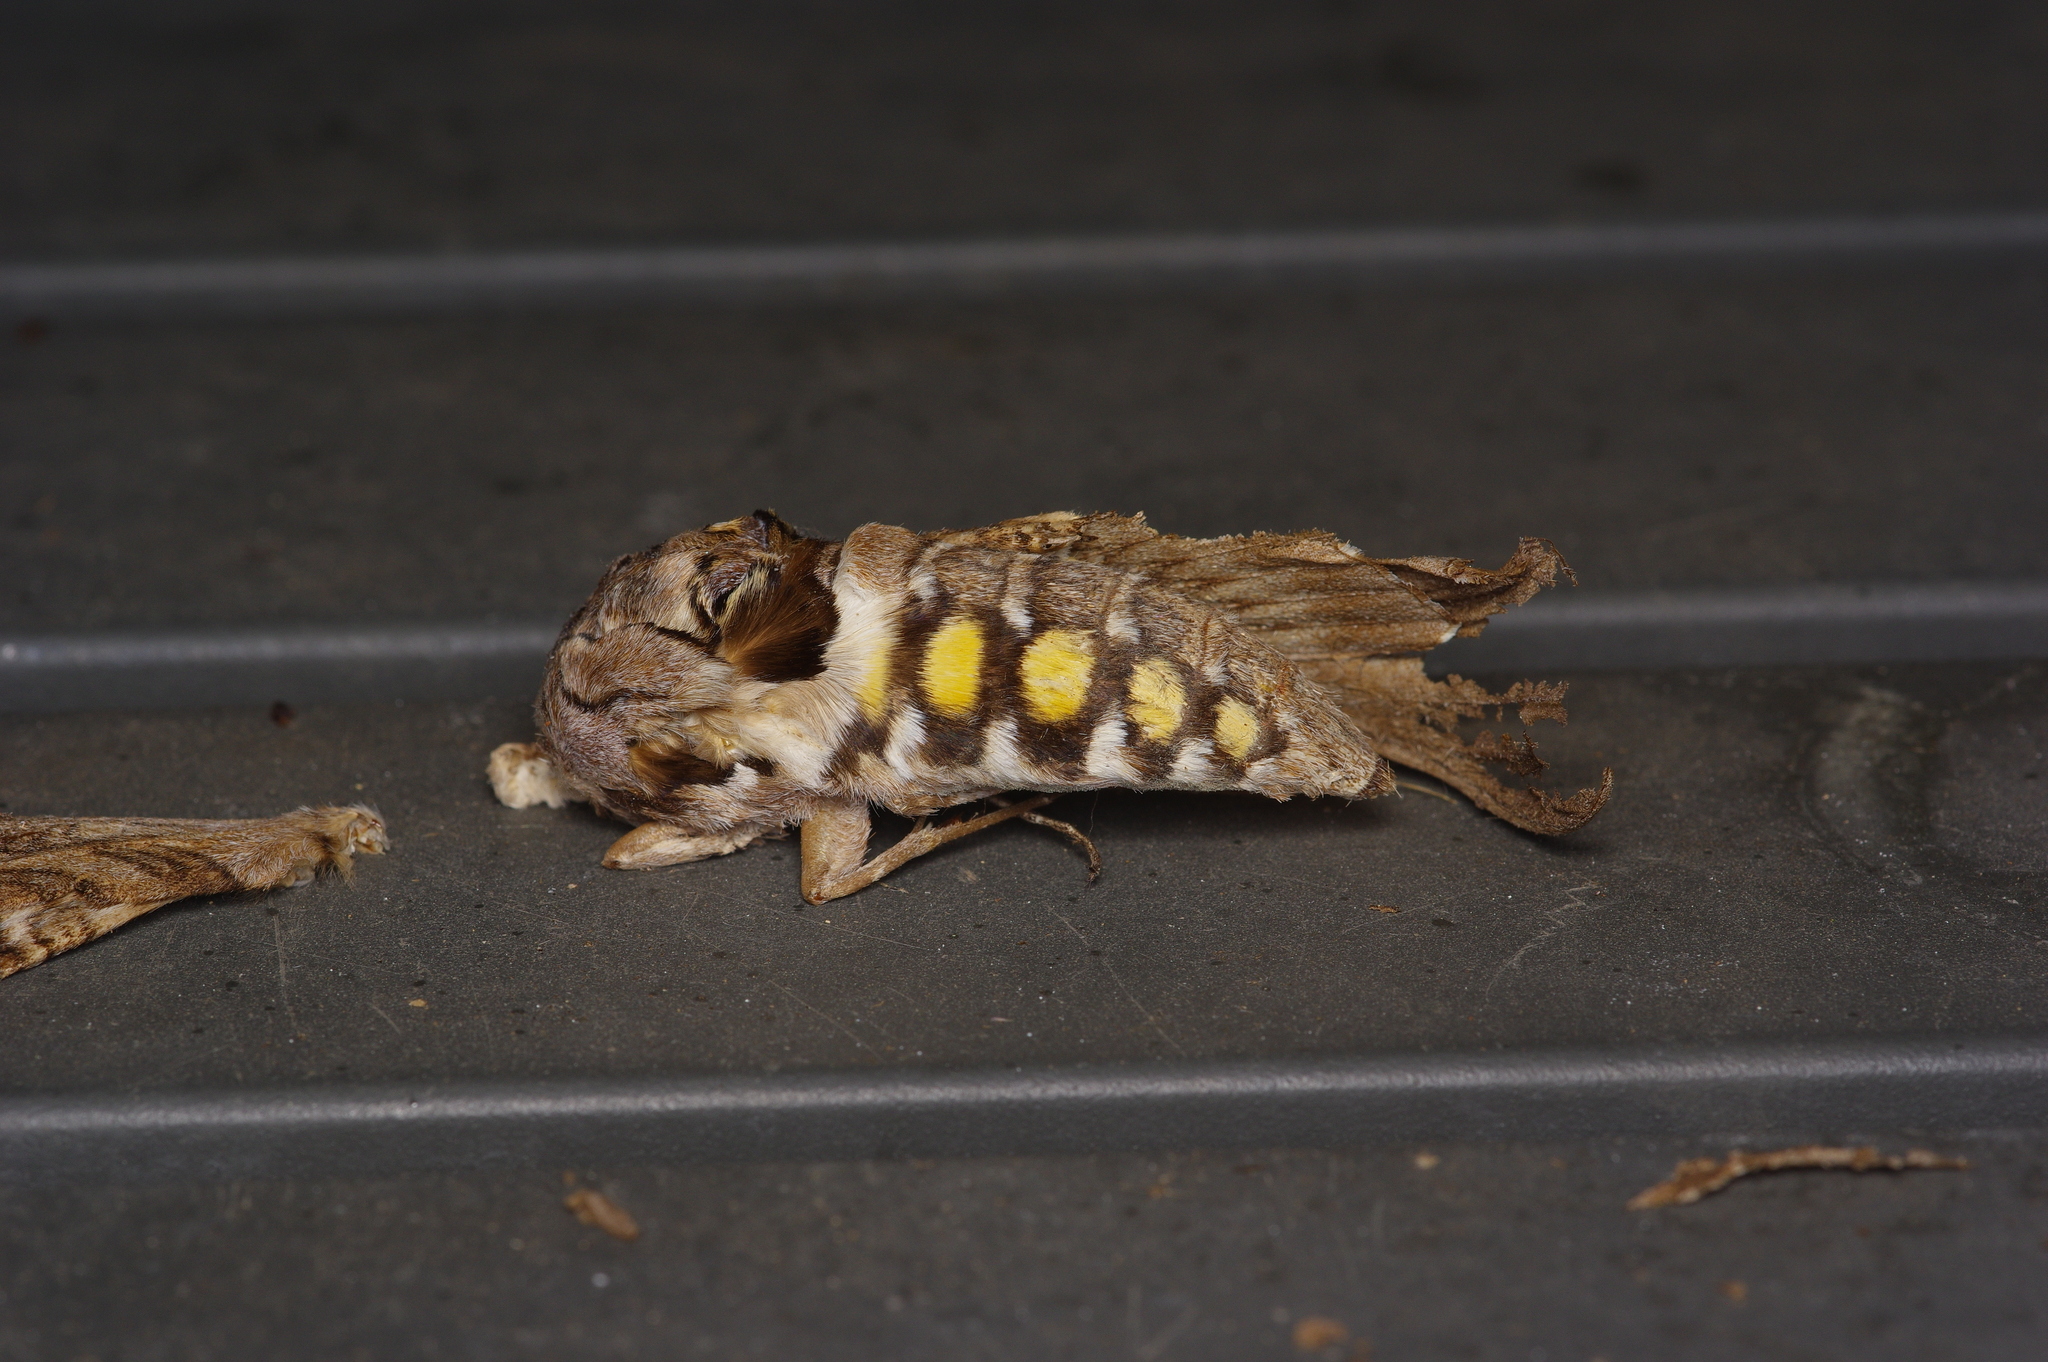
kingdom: Animalia
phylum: Arthropoda
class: Insecta
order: Lepidoptera
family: Sphingidae
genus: Manduca
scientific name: Manduca quinquemaculatus
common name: Five-spotted hawk-moth
